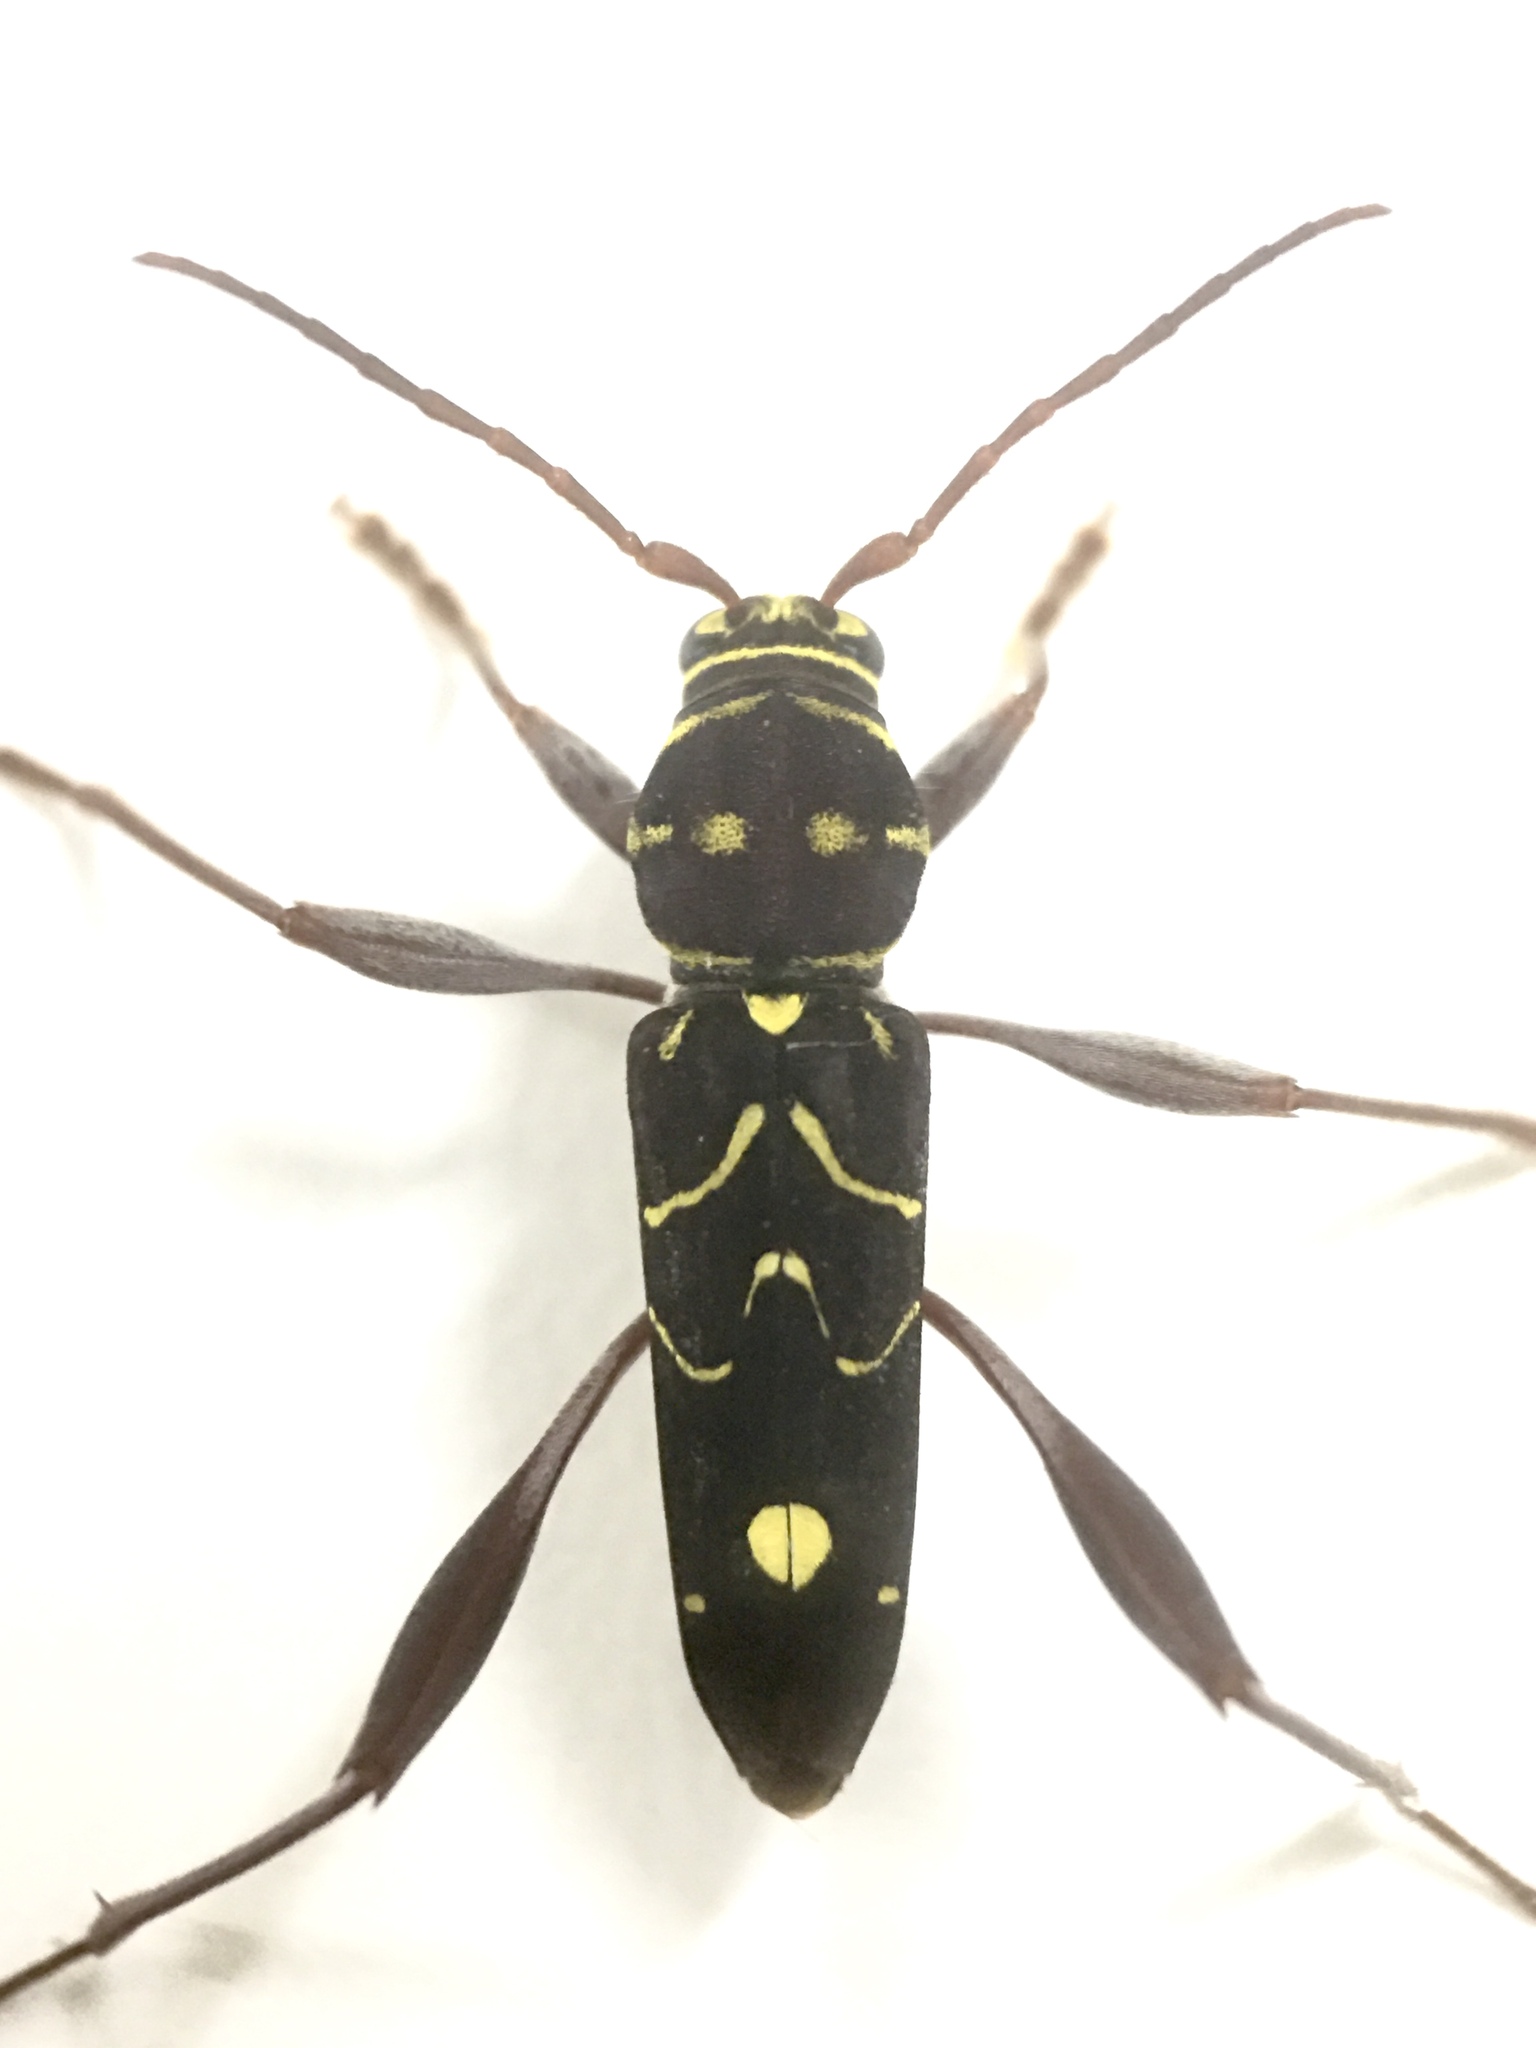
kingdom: Animalia
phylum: Arthropoda
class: Insecta
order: Coleoptera
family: Cerambycidae
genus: Cotyclytus
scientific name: Cotyclytus curvatus
